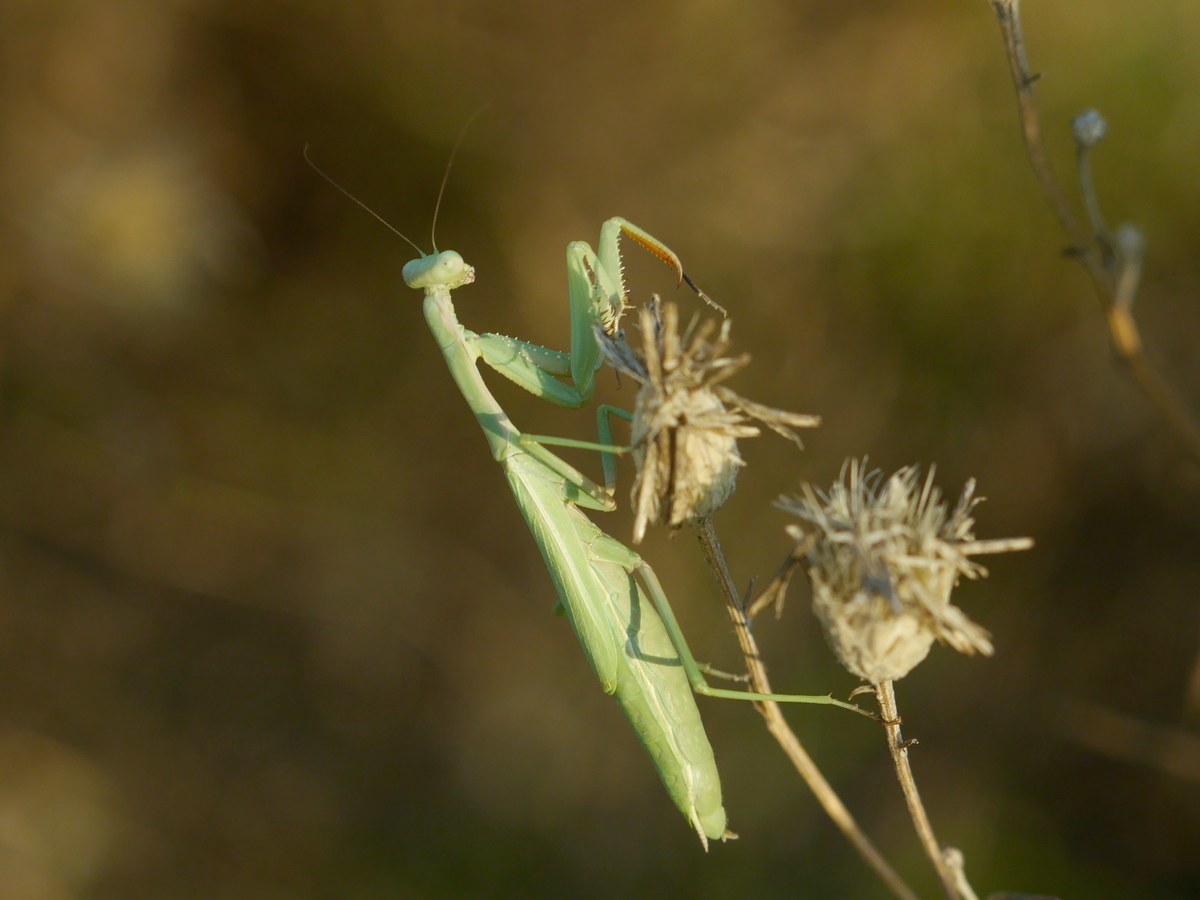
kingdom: Animalia
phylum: Arthropoda
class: Insecta
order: Mantodea
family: Eremiaphilidae
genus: Iris
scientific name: Iris polystictica
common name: Dot-winged mantis
